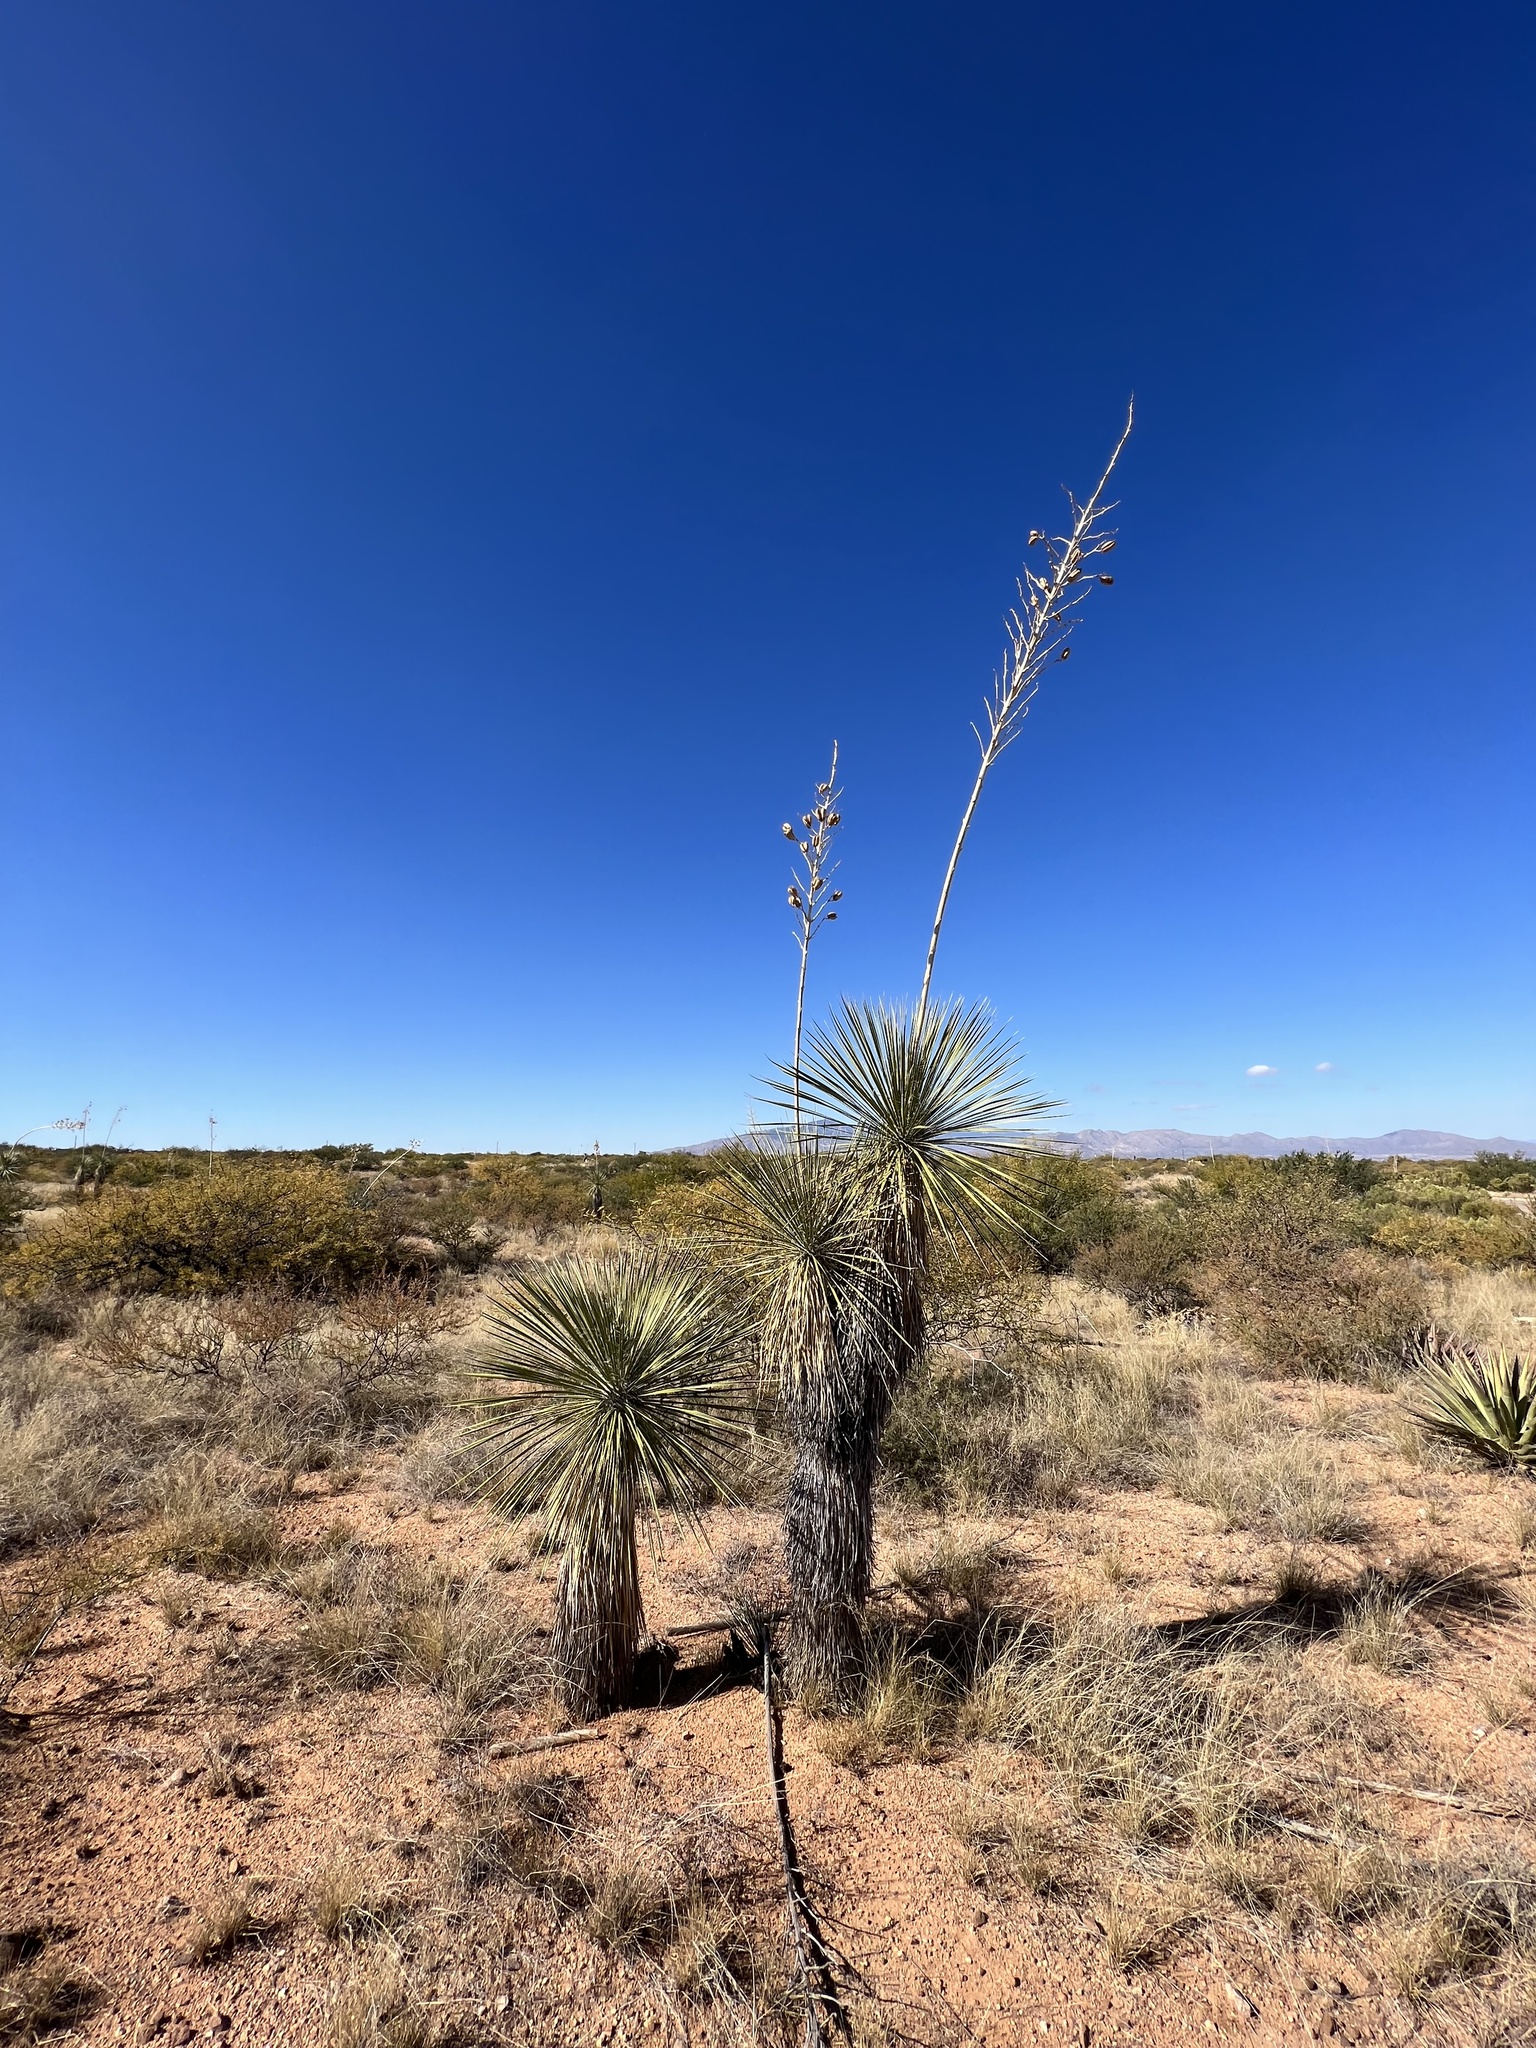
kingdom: Plantae
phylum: Tracheophyta
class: Liliopsida
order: Asparagales
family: Asparagaceae
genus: Yucca
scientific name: Yucca elata
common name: Palmella
